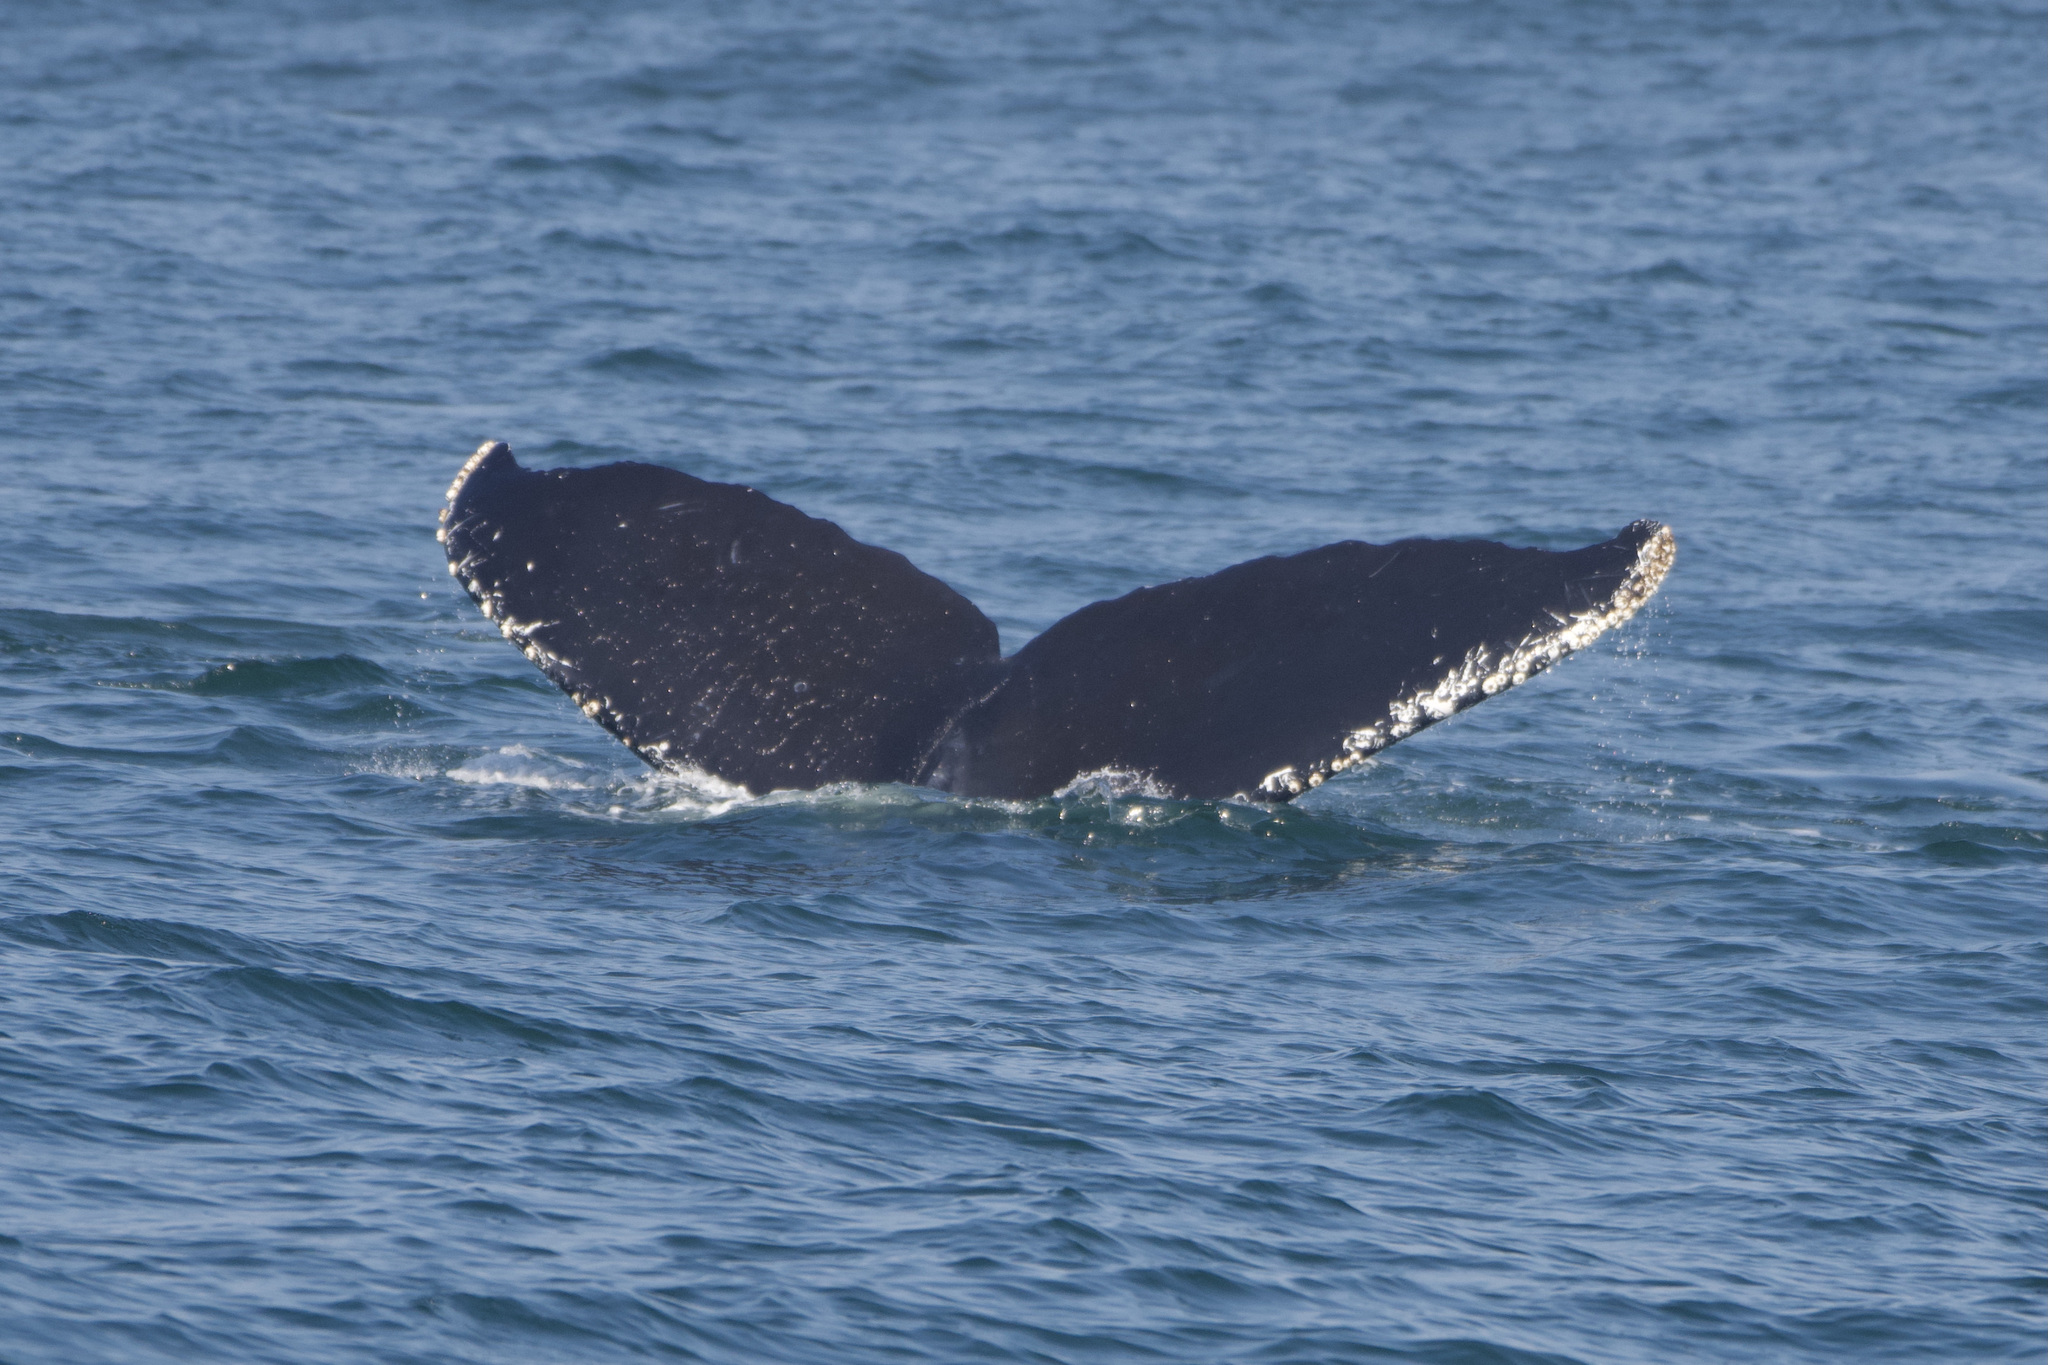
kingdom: Animalia
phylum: Chordata
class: Mammalia
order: Cetacea
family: Balaenopteridae
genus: Megaptera
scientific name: Megaptera novaeangliae
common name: Humpback whale
